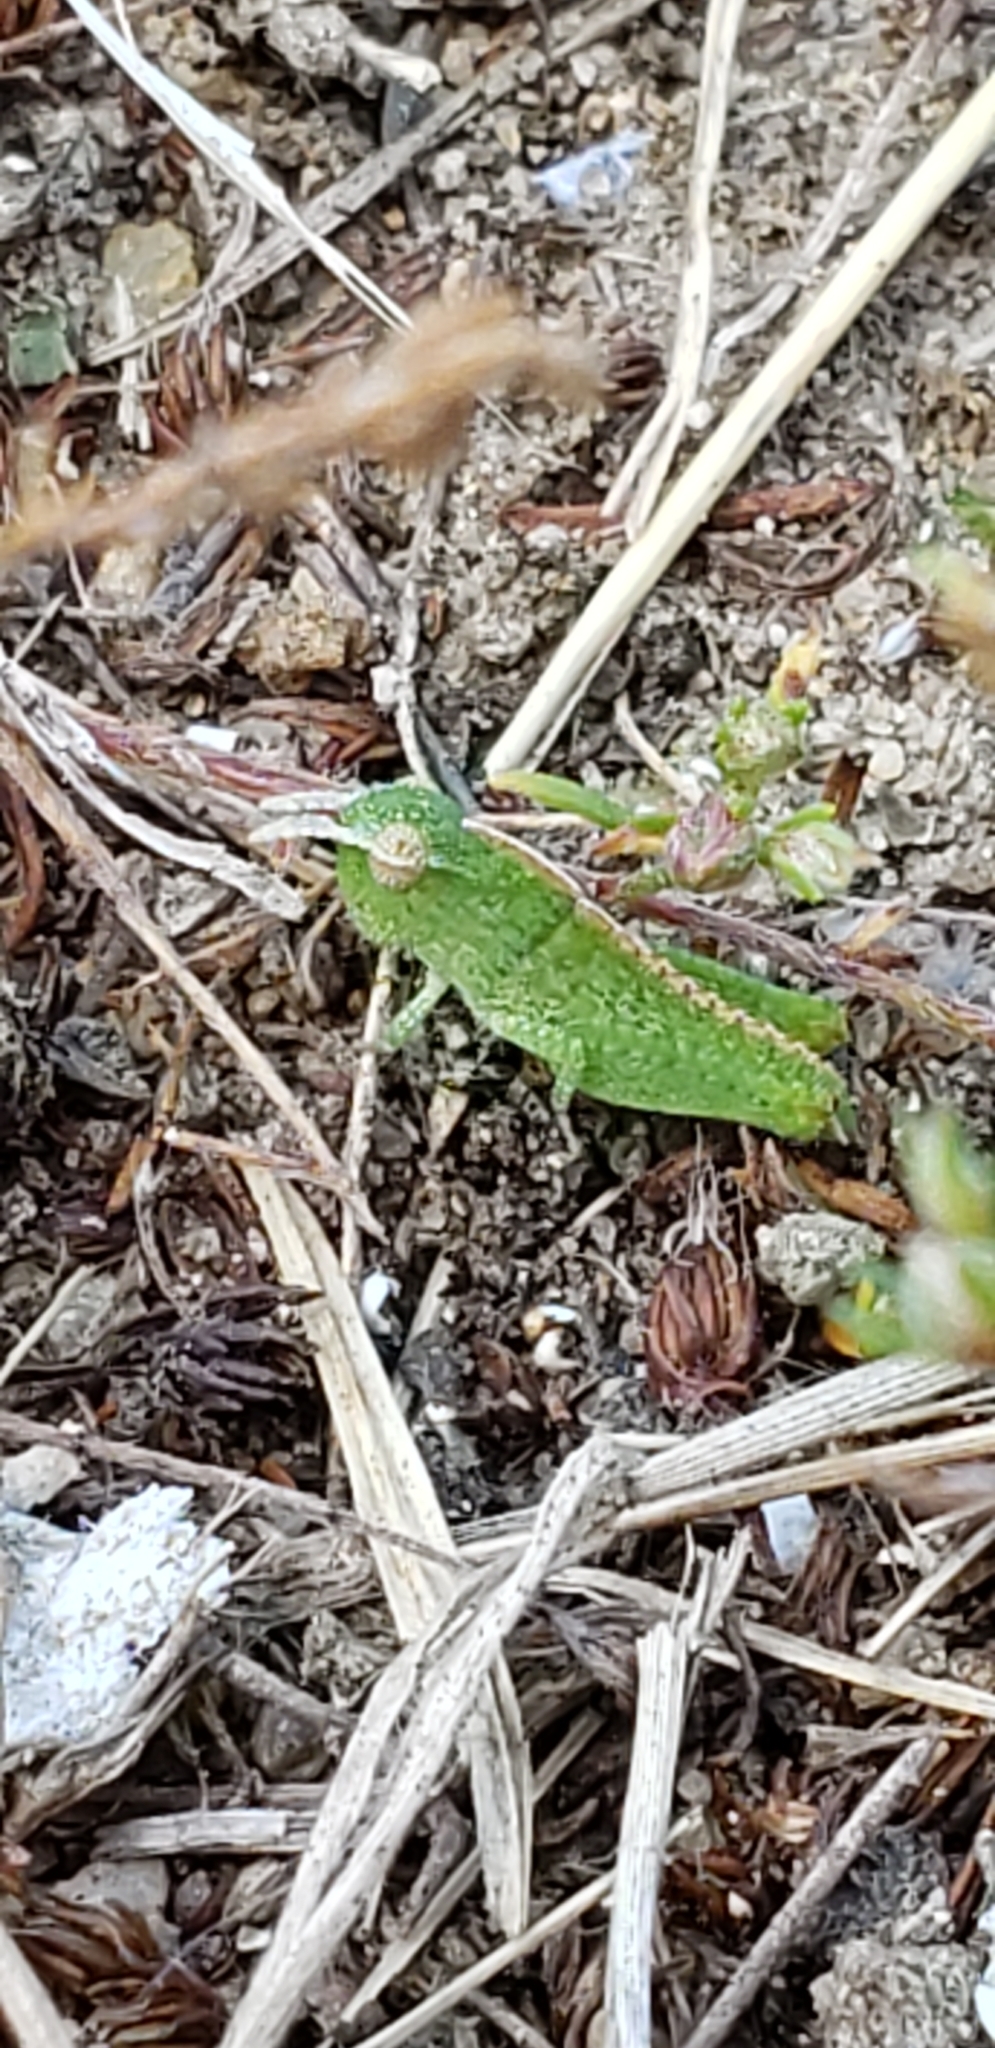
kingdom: Animalia
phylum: Arthropoda
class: Insecta
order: Orthoptera
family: Acrididae
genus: Chortophaga
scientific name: Chortophaga viridifasciata
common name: Green-striped grasshopper
